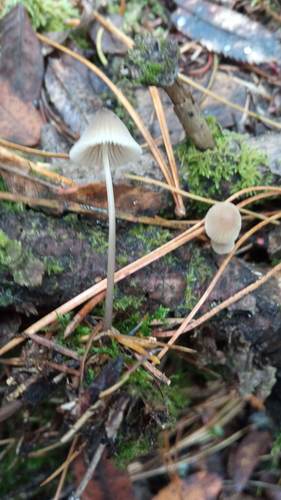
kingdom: Fungi
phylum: Basidiomycota
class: Agaricomycetes
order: Agaricales
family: Mycenaceae
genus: Mycena
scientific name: Mycena galericulata
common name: Bonnet mycena
